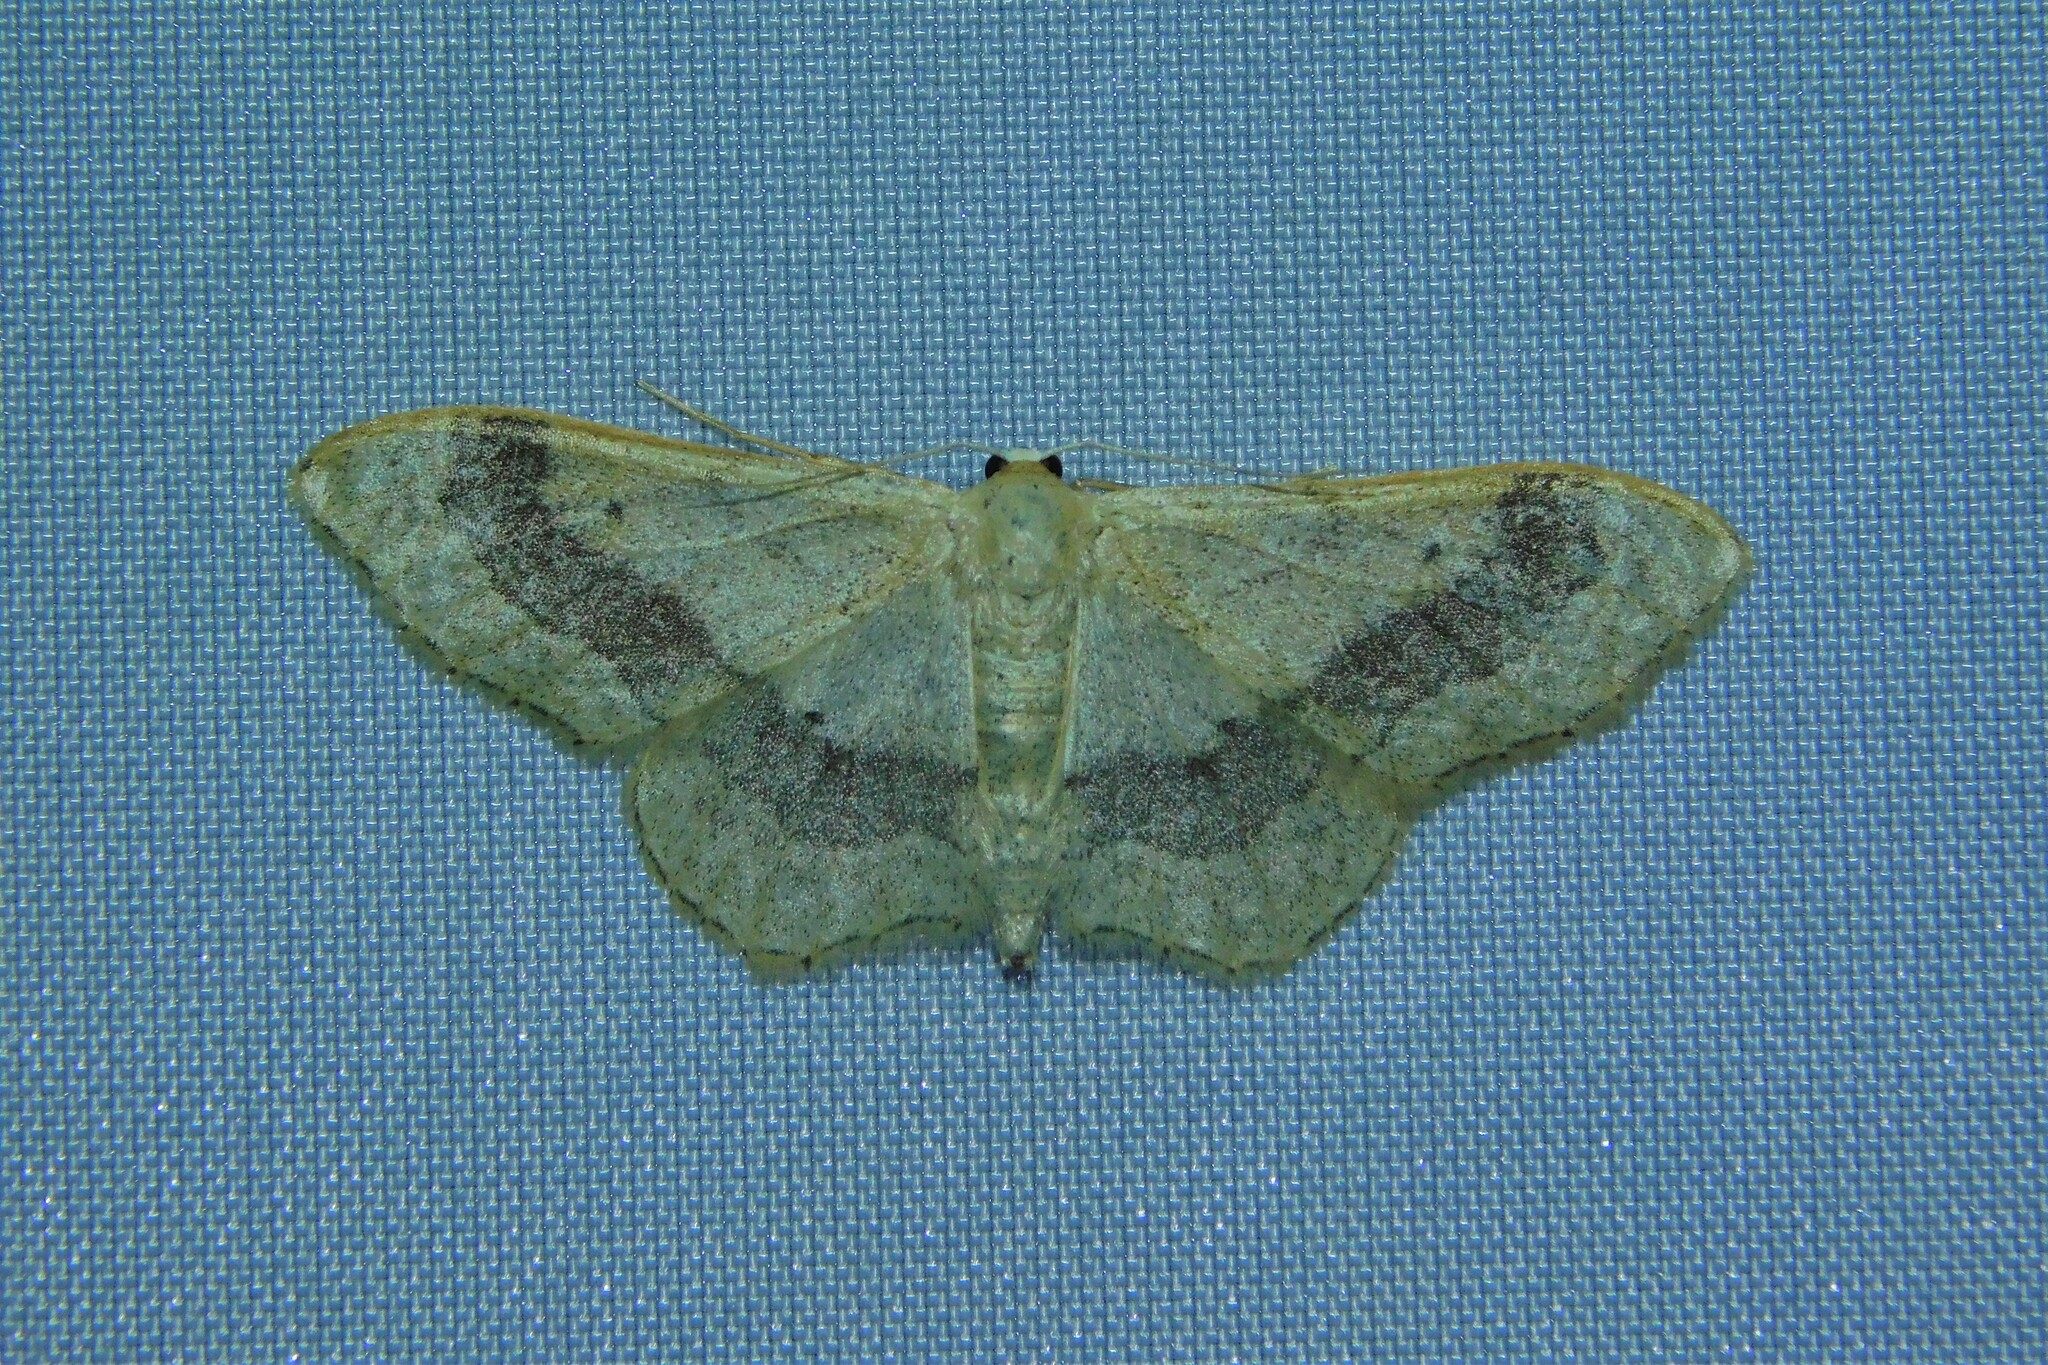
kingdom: Animalia
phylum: Arthropoda
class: Insecta
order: Lepidoptera
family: Geometridae
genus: Idaea
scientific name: Idaea aversata
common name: Riband wave
